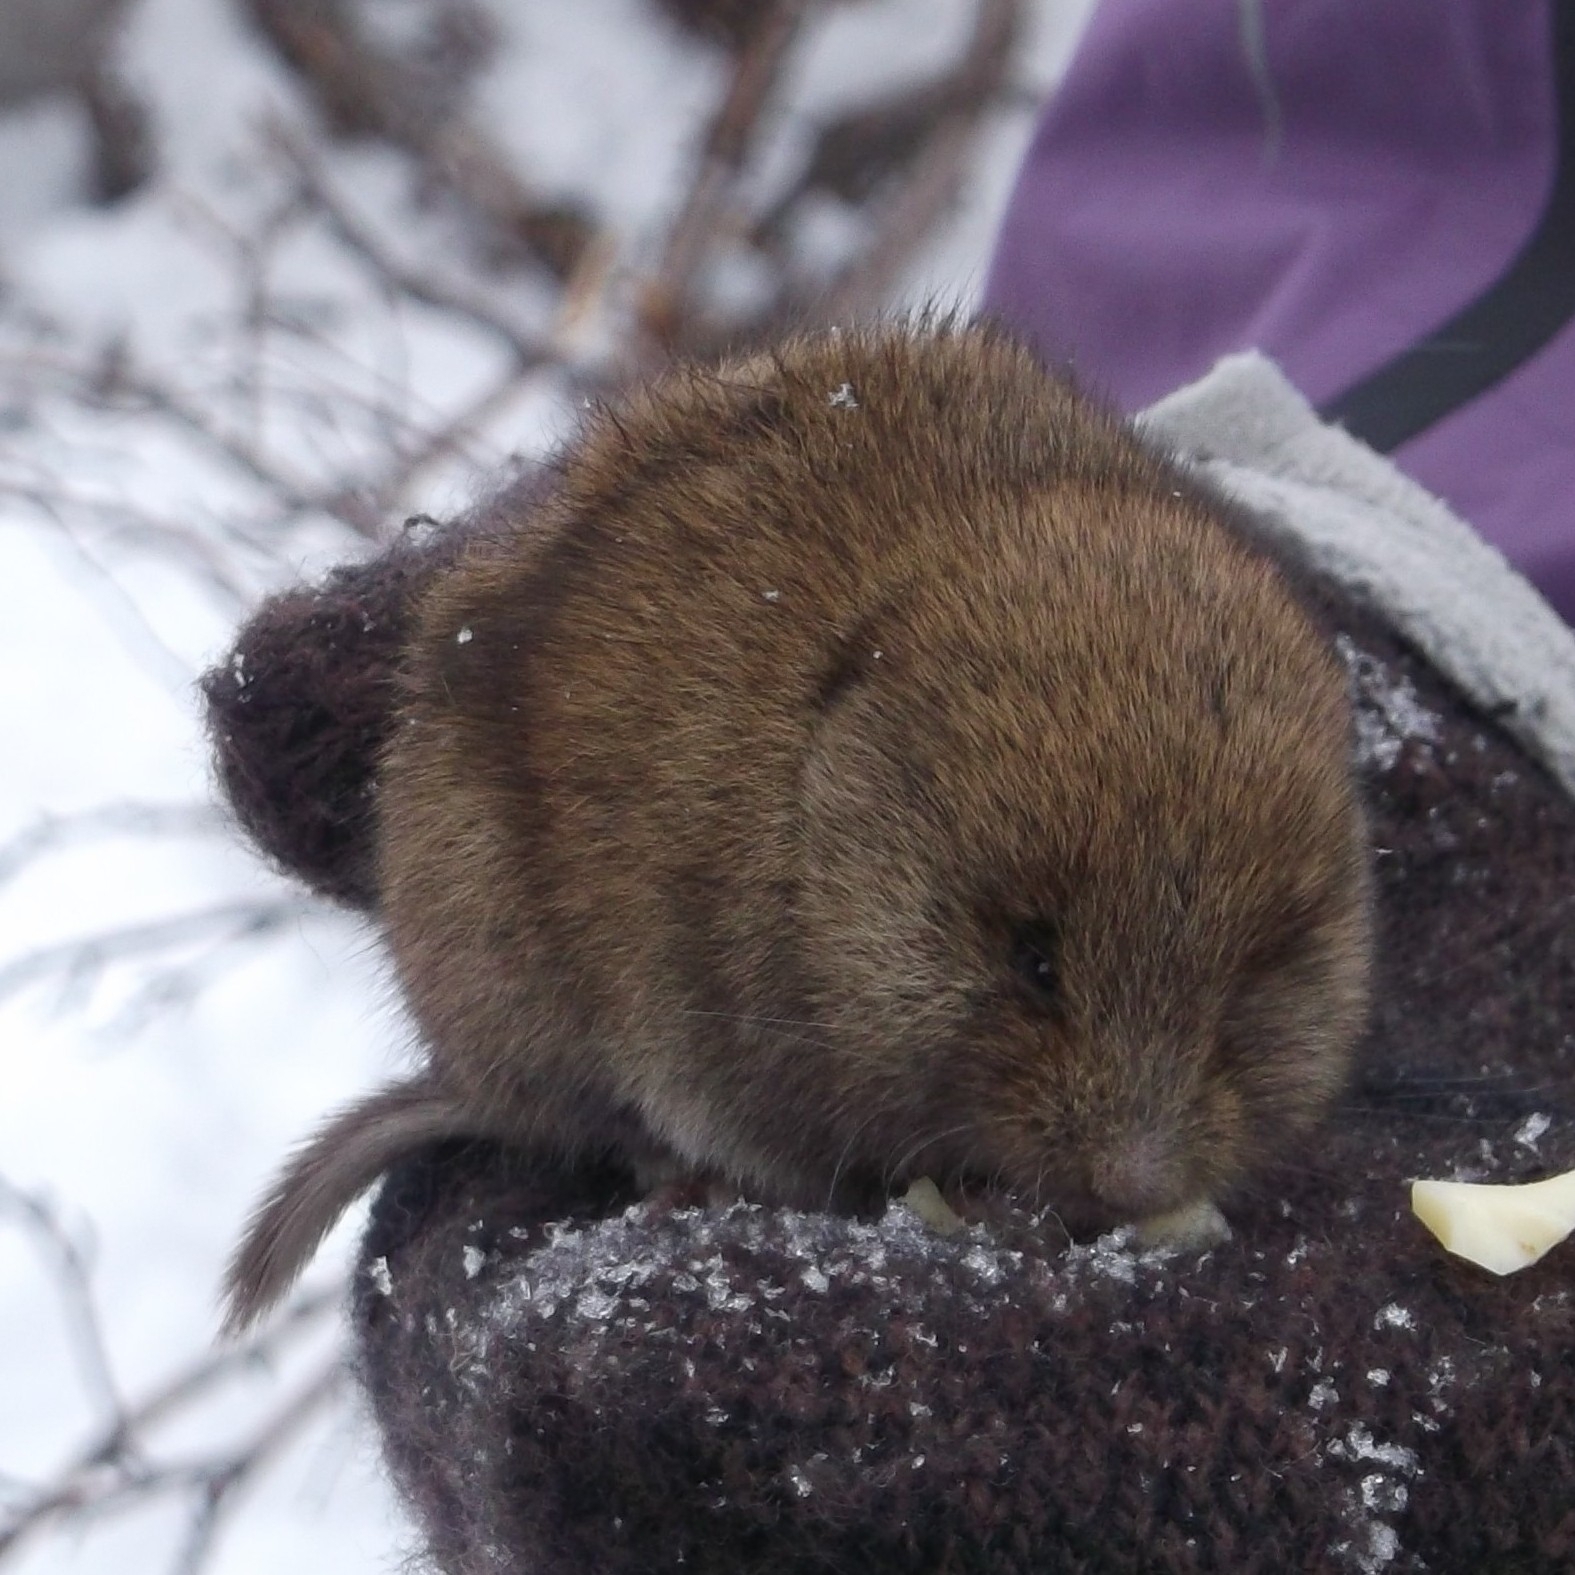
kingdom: Animalia
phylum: Chordata
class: Mammalia
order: Rodentia
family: Cricetidae
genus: Lemmus
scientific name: Lemmus sibiricus
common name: Siberian brown lemming
